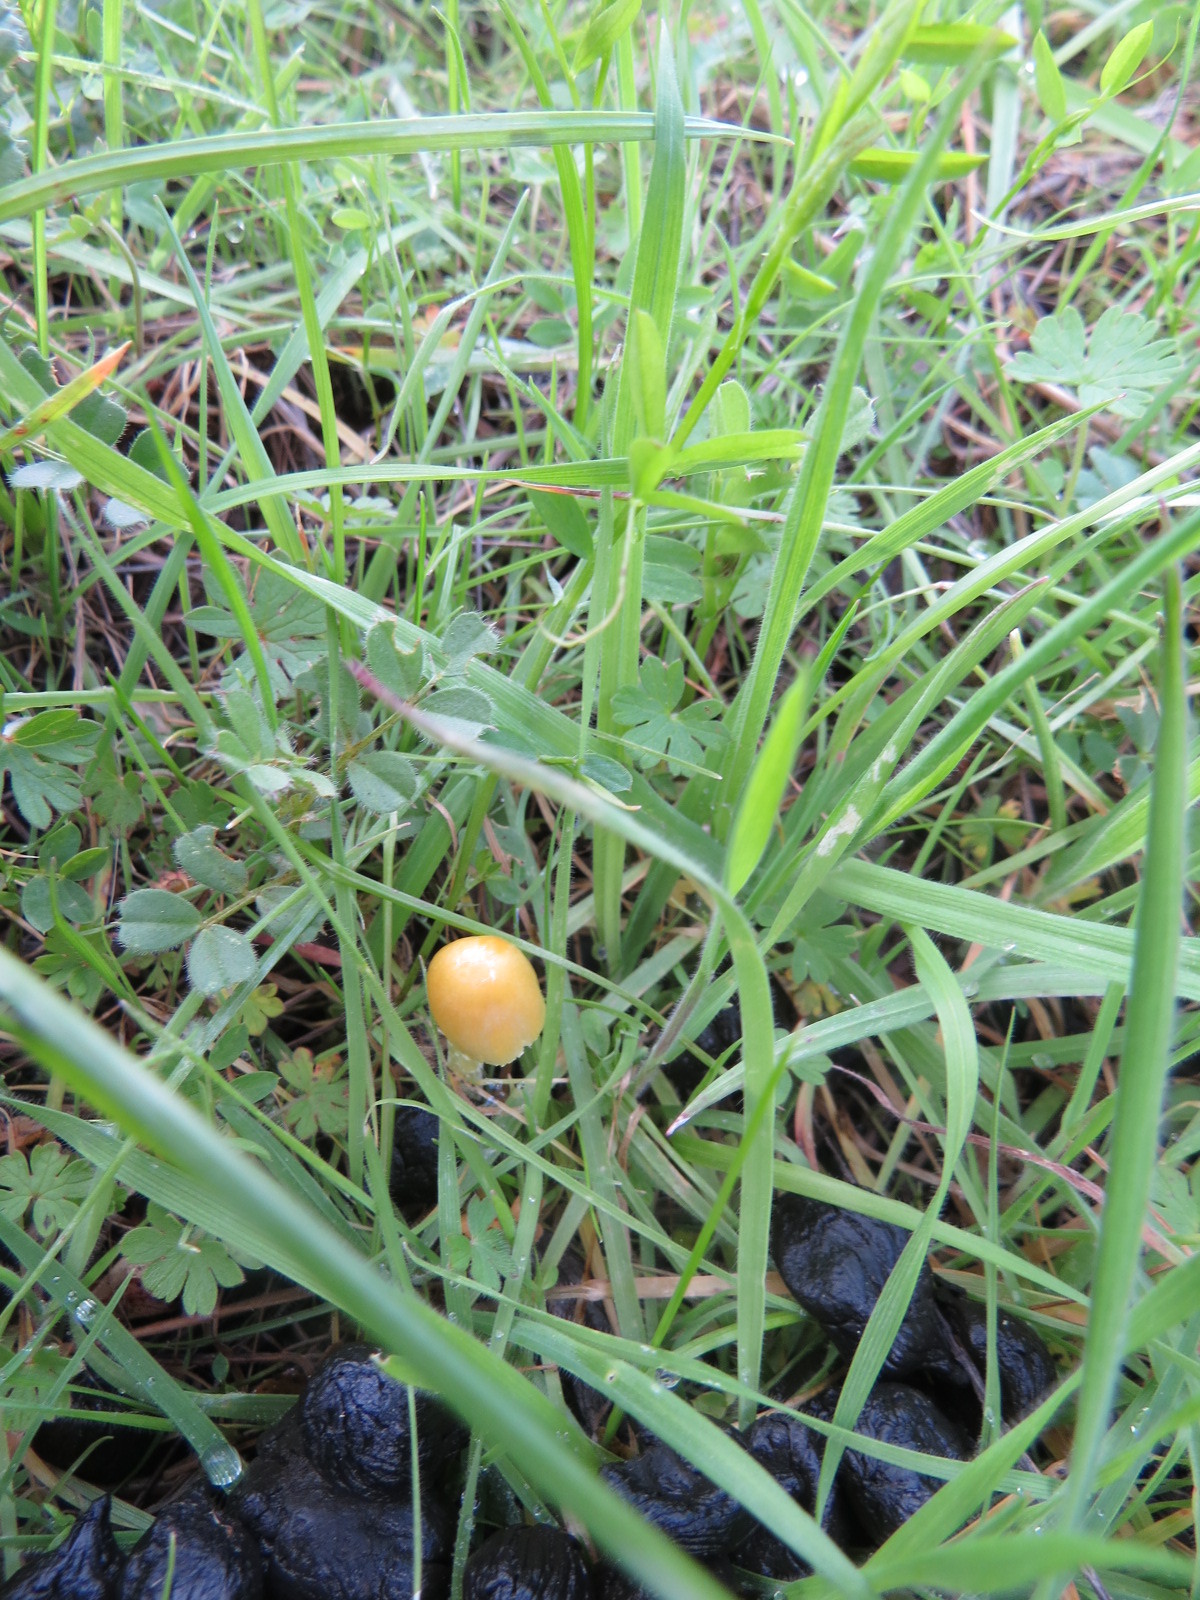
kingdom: Fungi
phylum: Basidiomycota
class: Agaricomycetes
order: Agaricales
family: Bolbitiaceae
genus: Bolbitius
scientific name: Bolbitius titubans
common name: Yellow fieldcap
